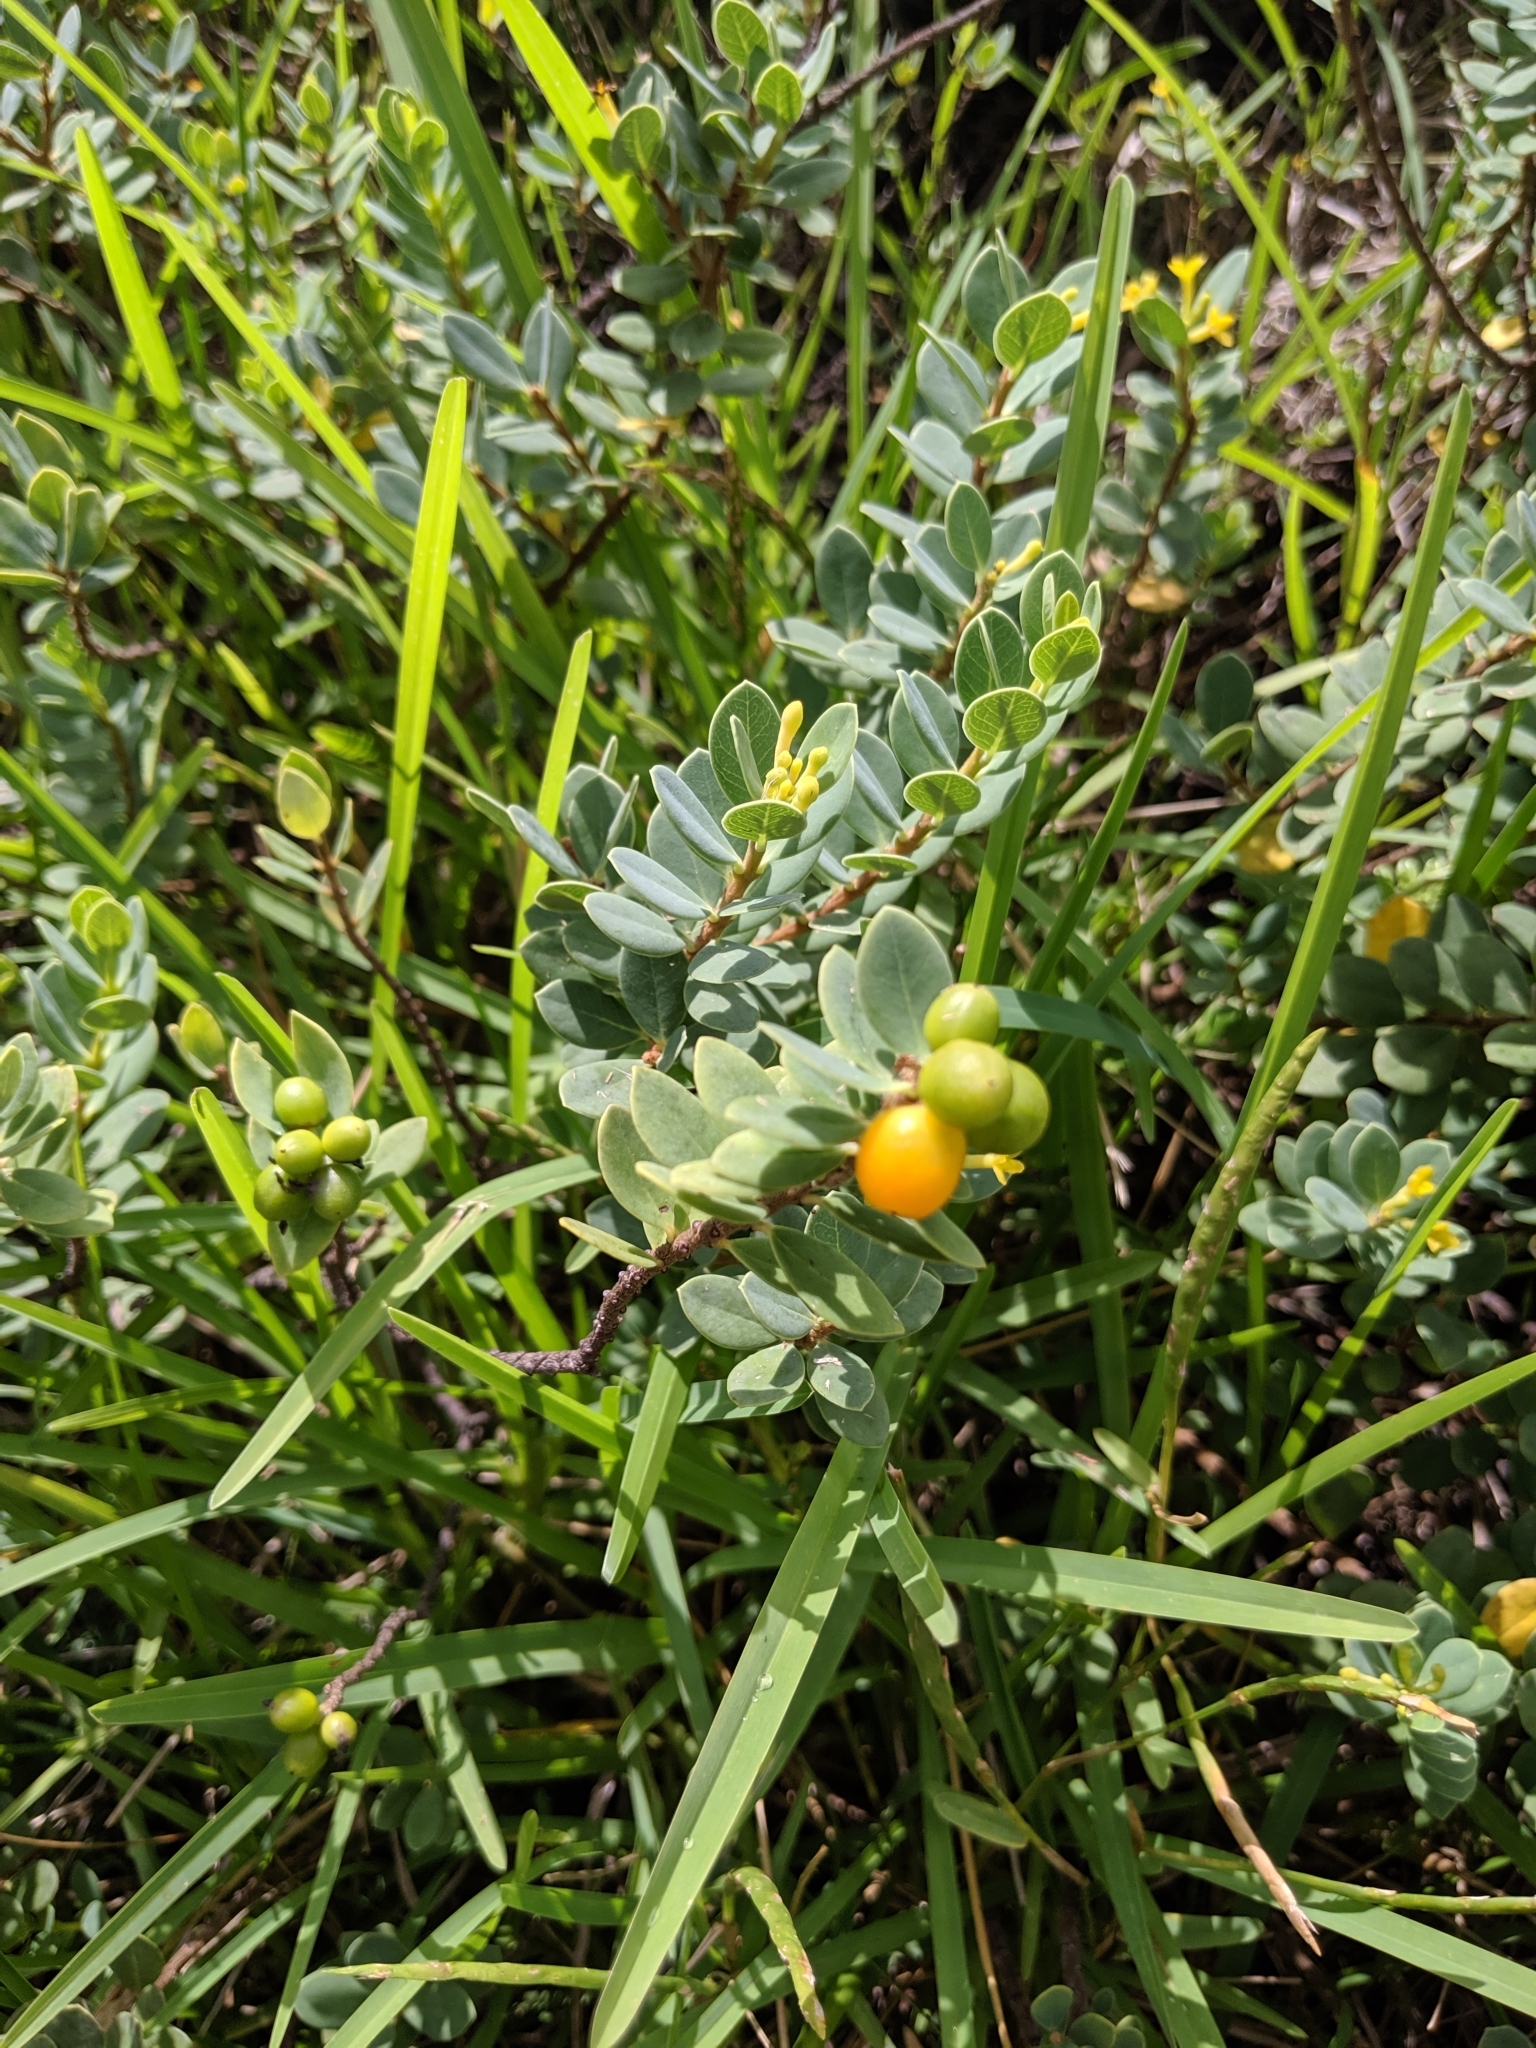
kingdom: Plantae
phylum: Tracheophyta
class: Magnoliopsida
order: Malvales
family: Thymelaeaceae
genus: Wikstroemia
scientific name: Wikstroemia uva-ursi
